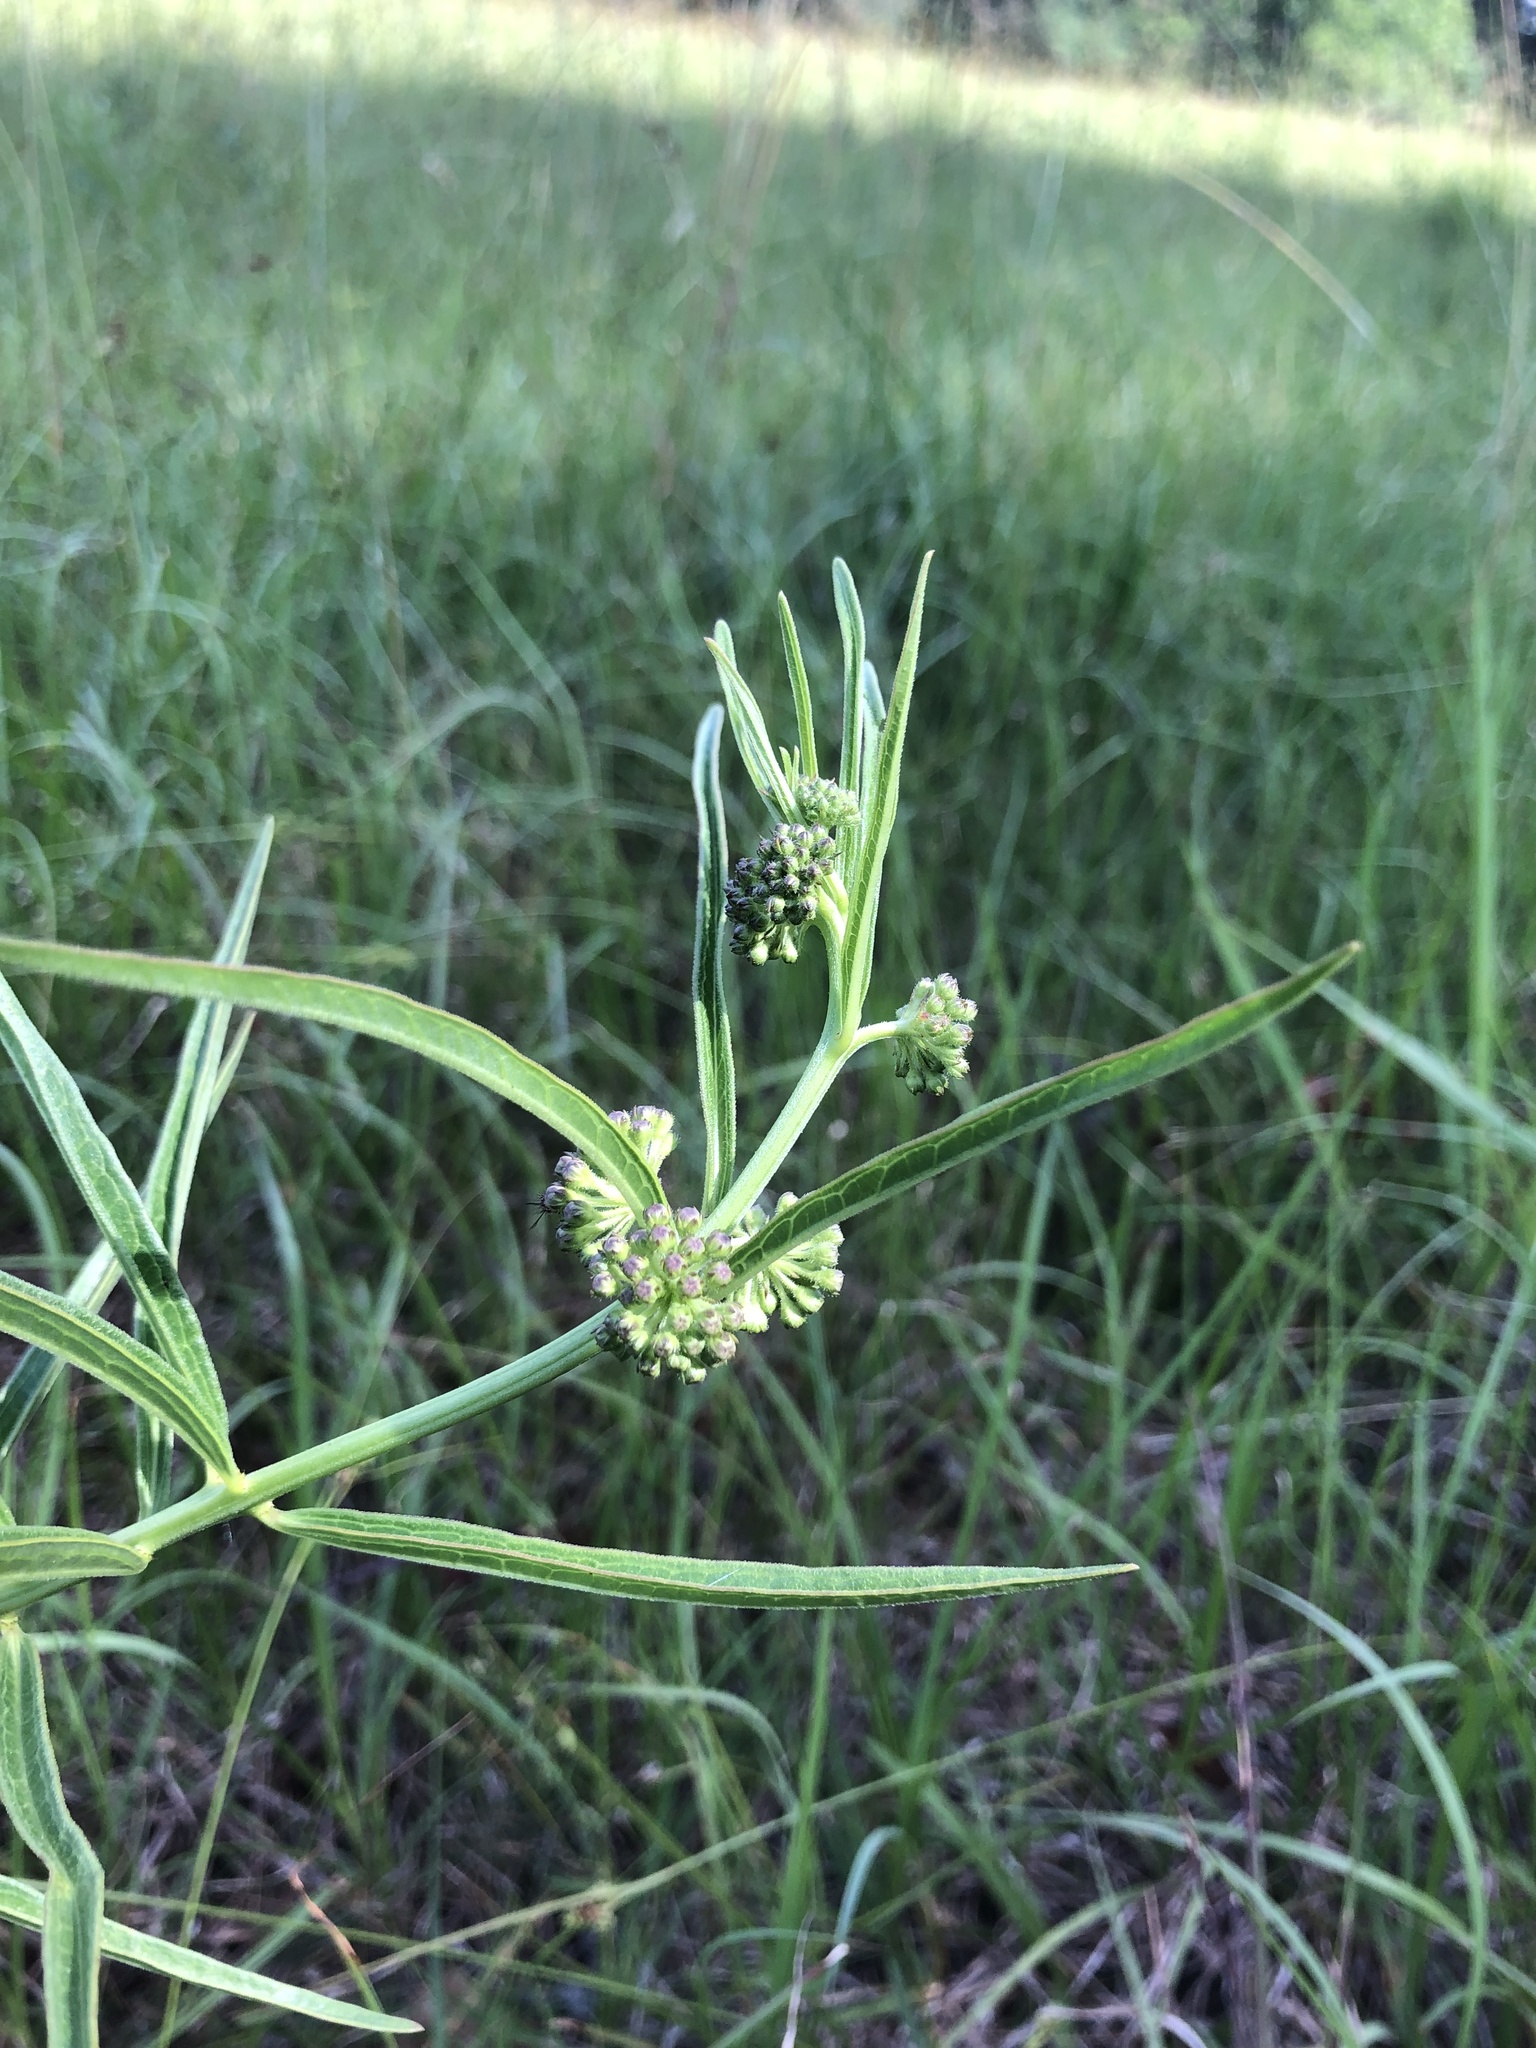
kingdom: Plantae
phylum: Tracheophyta
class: Magnoliopsida
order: Gentianales
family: Apocynaceae
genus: Asclepias
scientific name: Asclepias hirtella
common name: Prairie milkweed
